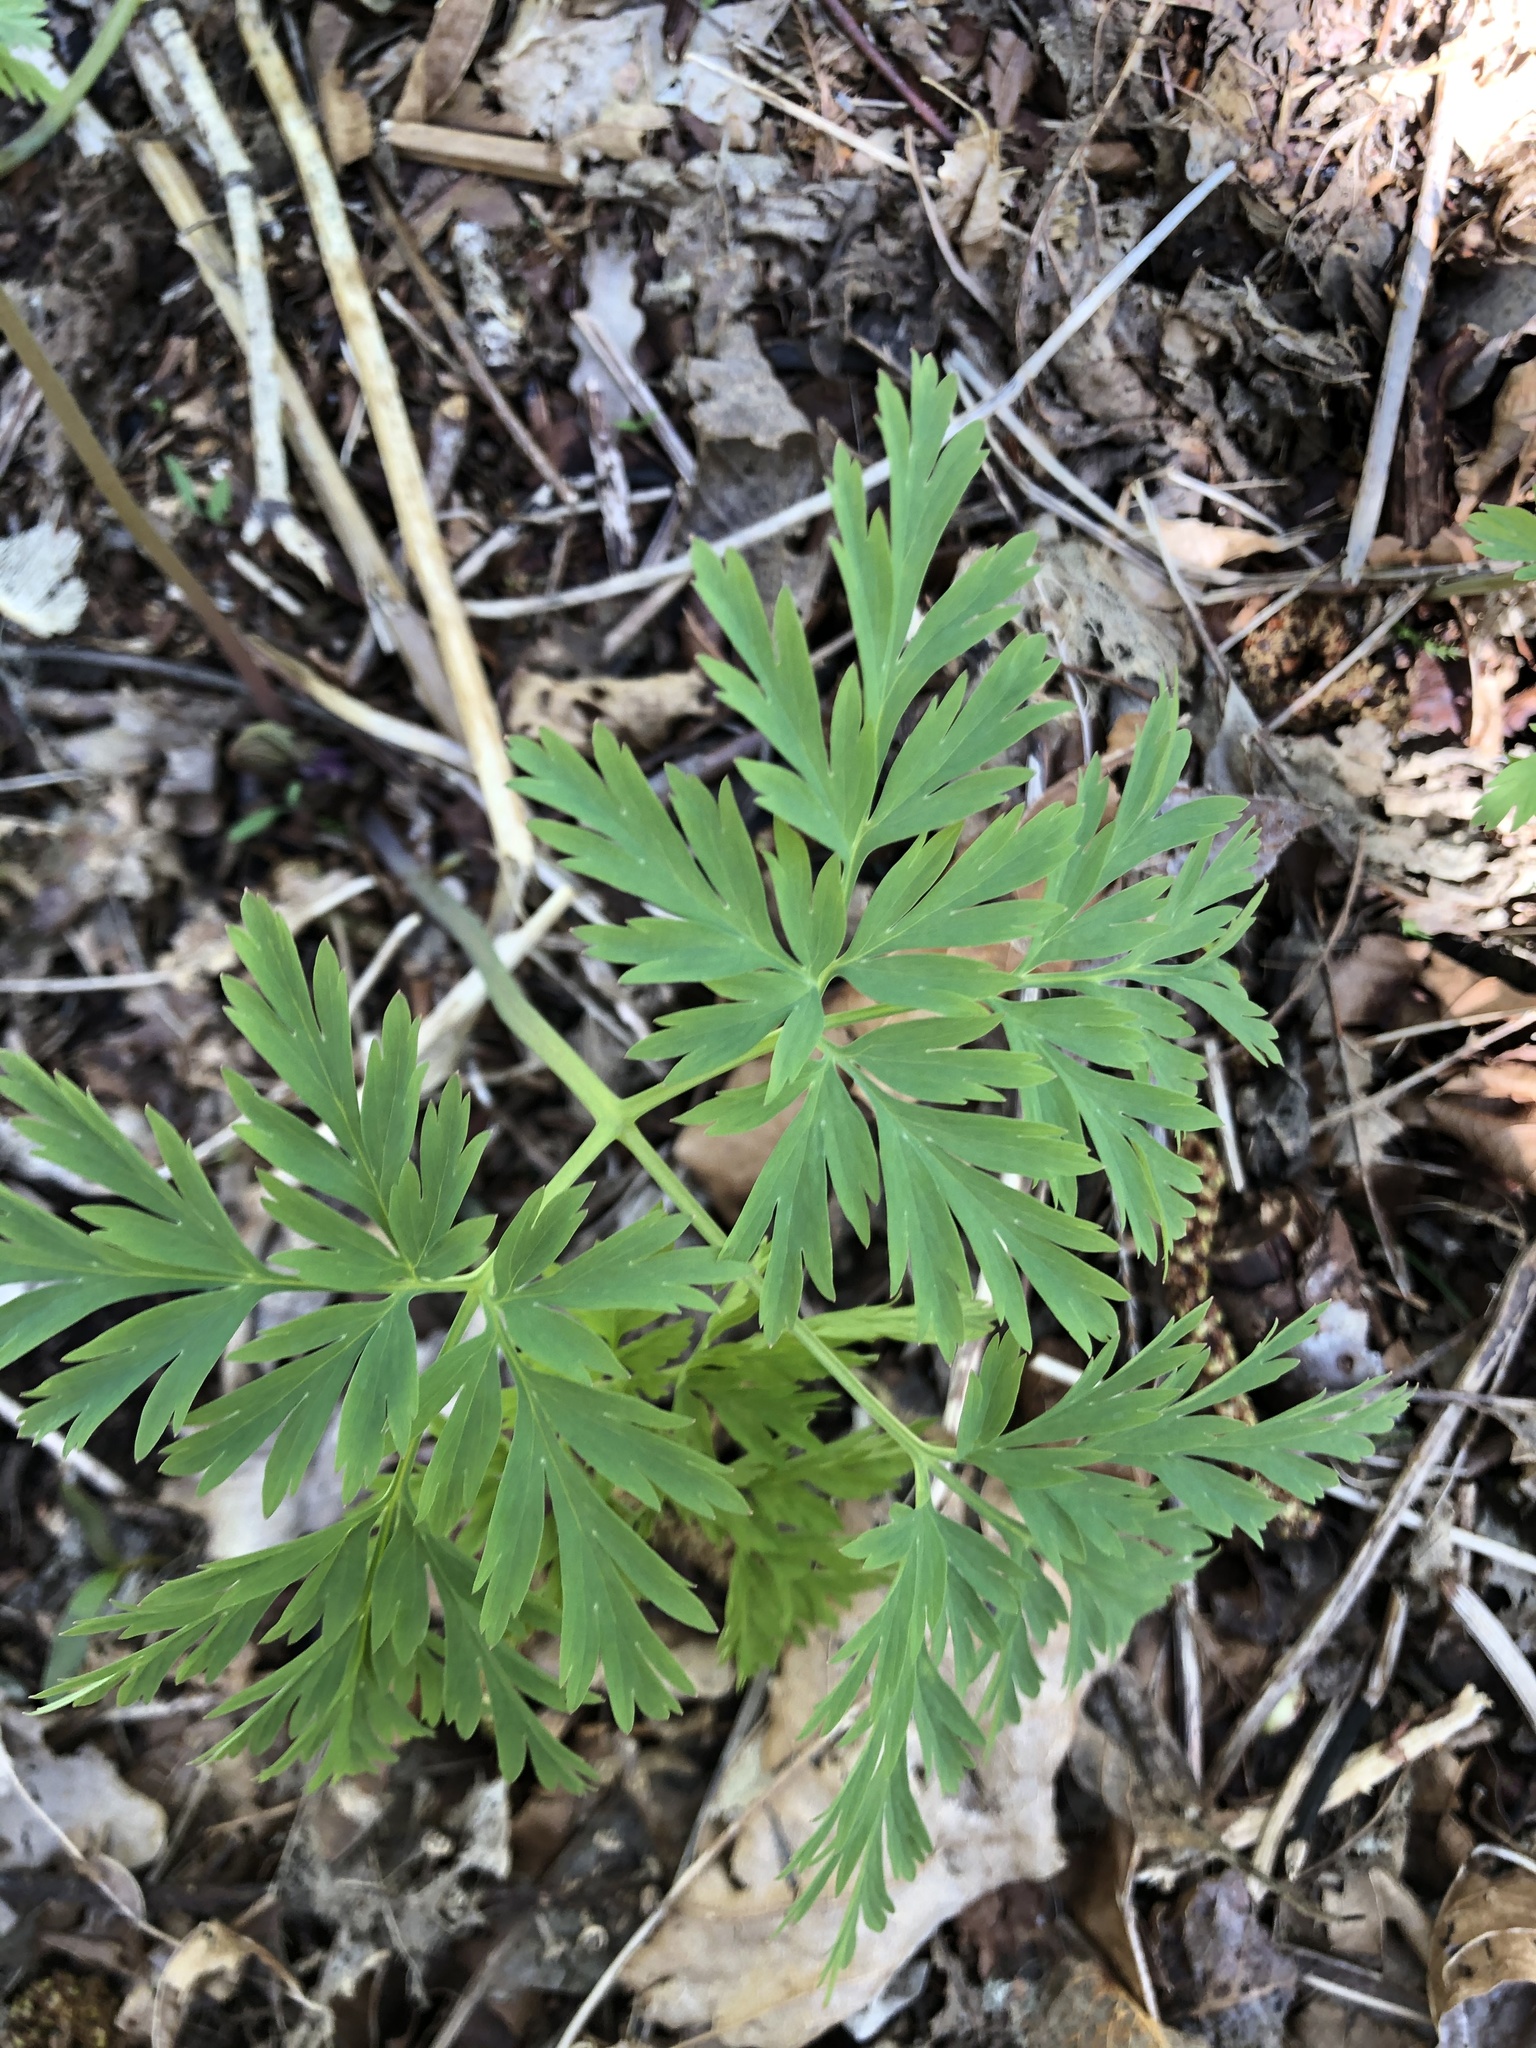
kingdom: Plantae
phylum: Tracheophyta
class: Magnoliopsida
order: Ranunculales
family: Papaveraceae
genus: Dicentra
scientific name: Dicentra formosa
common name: Bleeding-heart
